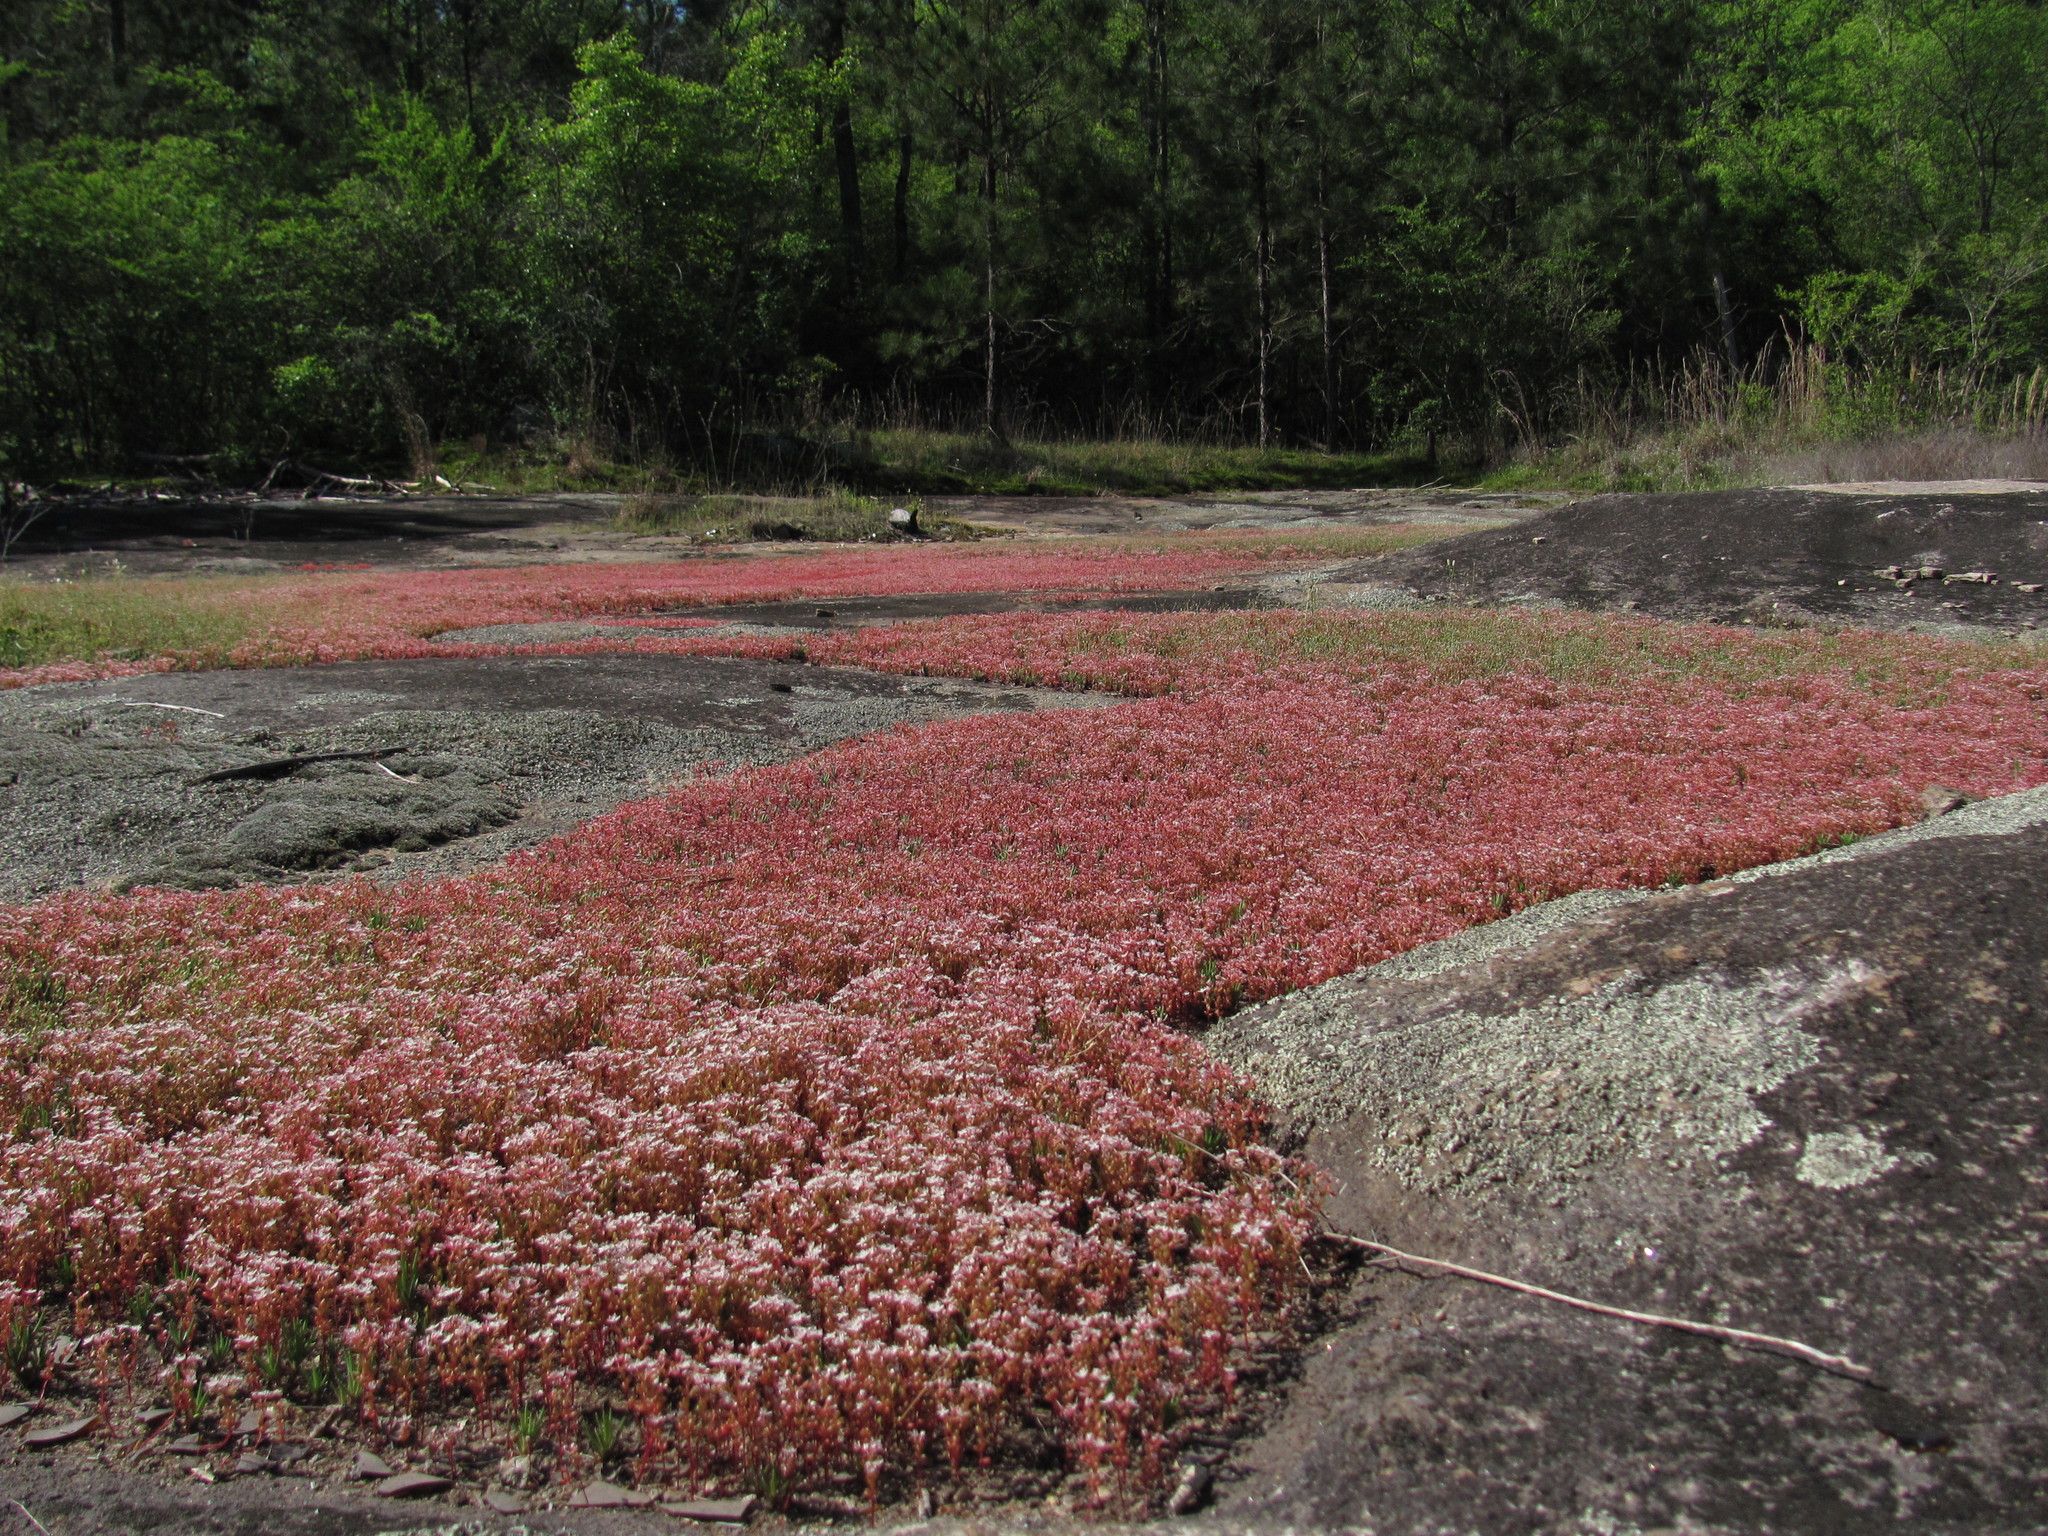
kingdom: Plantae
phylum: Tracheophyta
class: Magnoliopsida
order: Saxifragales
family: Crassulaceae
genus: Sedum
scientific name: Sedum smallii
